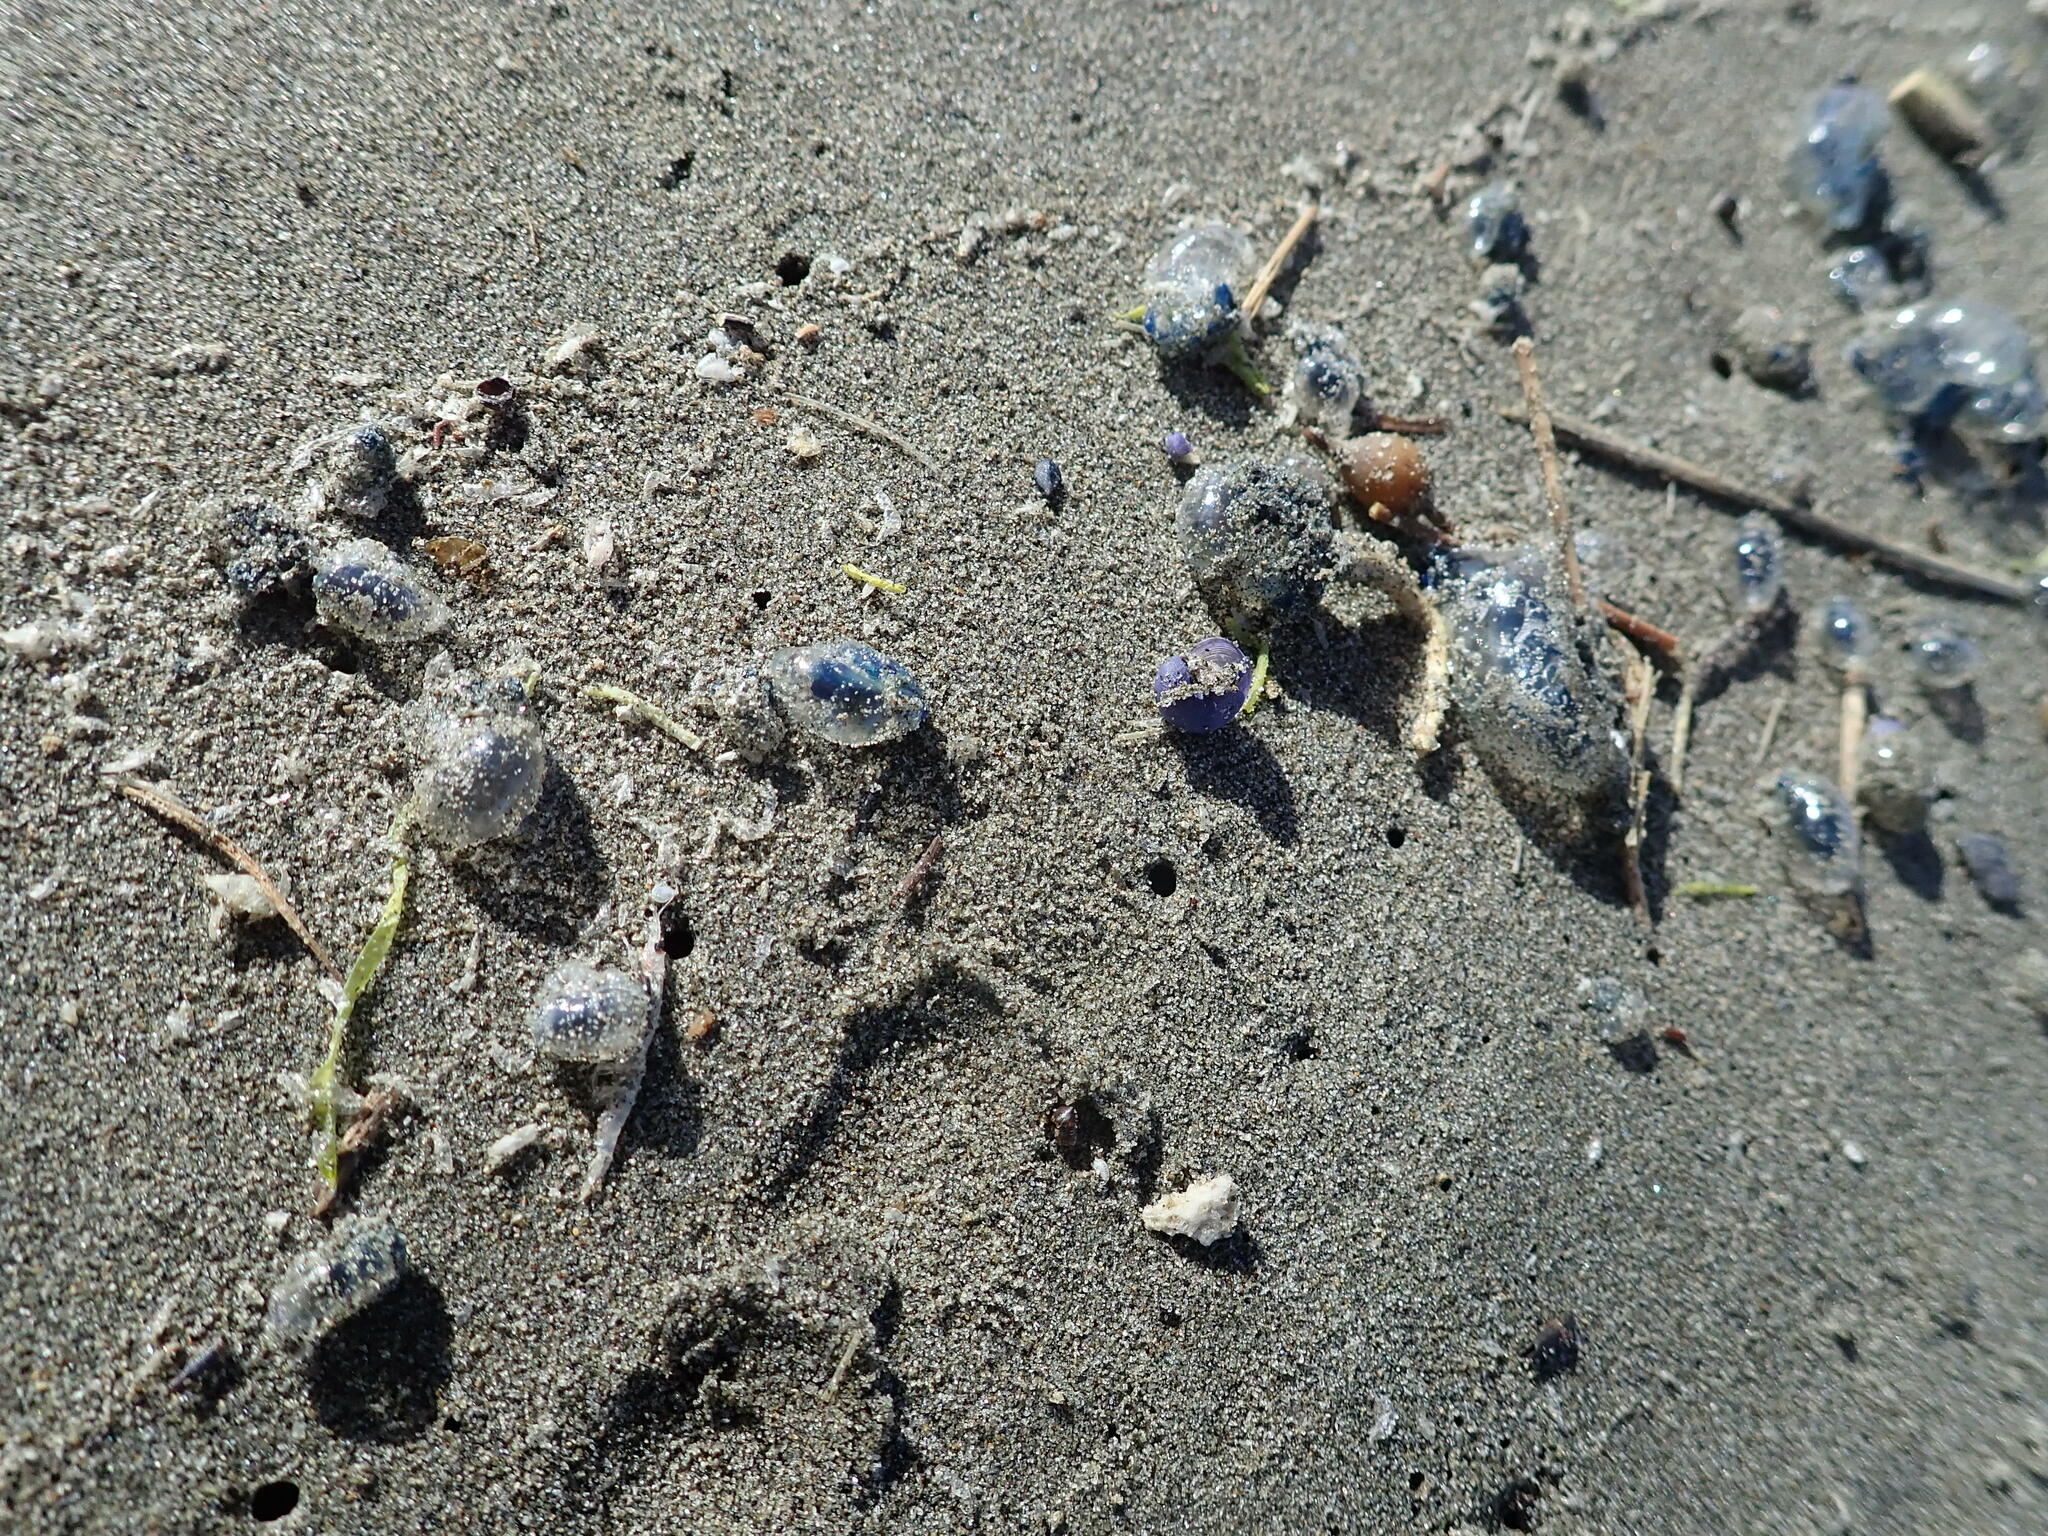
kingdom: Animalia
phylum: Cnidaria
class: Hydrozoa
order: Siphonophorae
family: Physaliidae
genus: Physalia
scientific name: Physalia physalis
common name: Portuguese man-of-war
